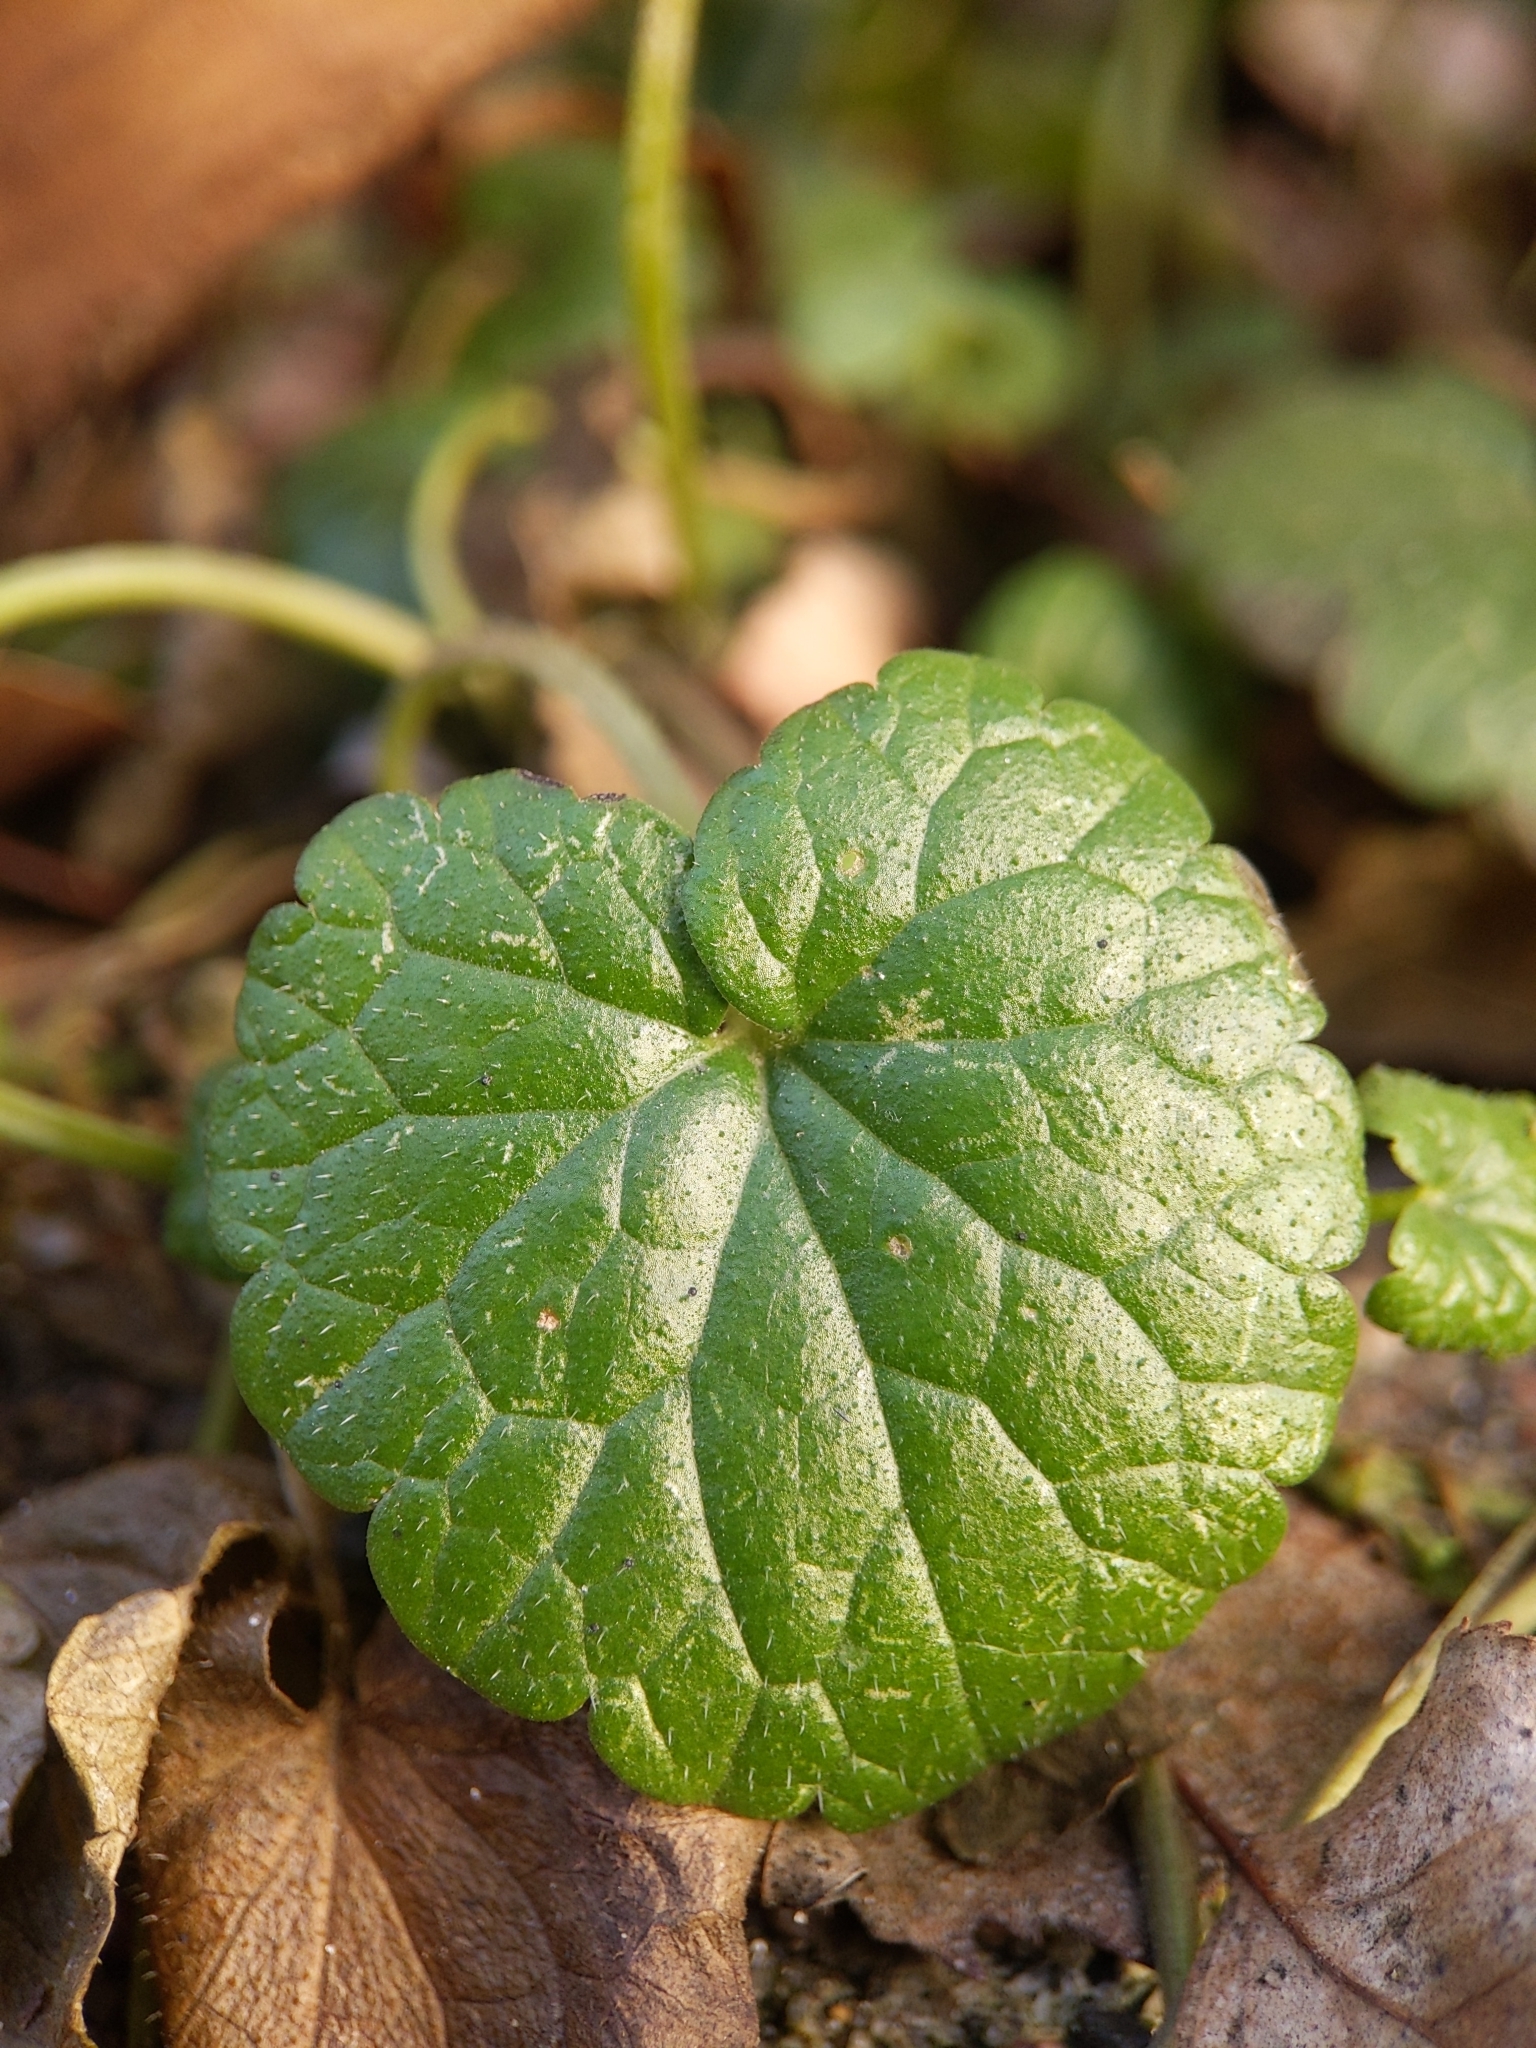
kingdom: Plantae
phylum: Tracheophyta
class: Magnoliopsida
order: Lamiales
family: Lamiaceae
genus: Glechoma
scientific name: Glechoma hederacea
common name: Ground ivy
